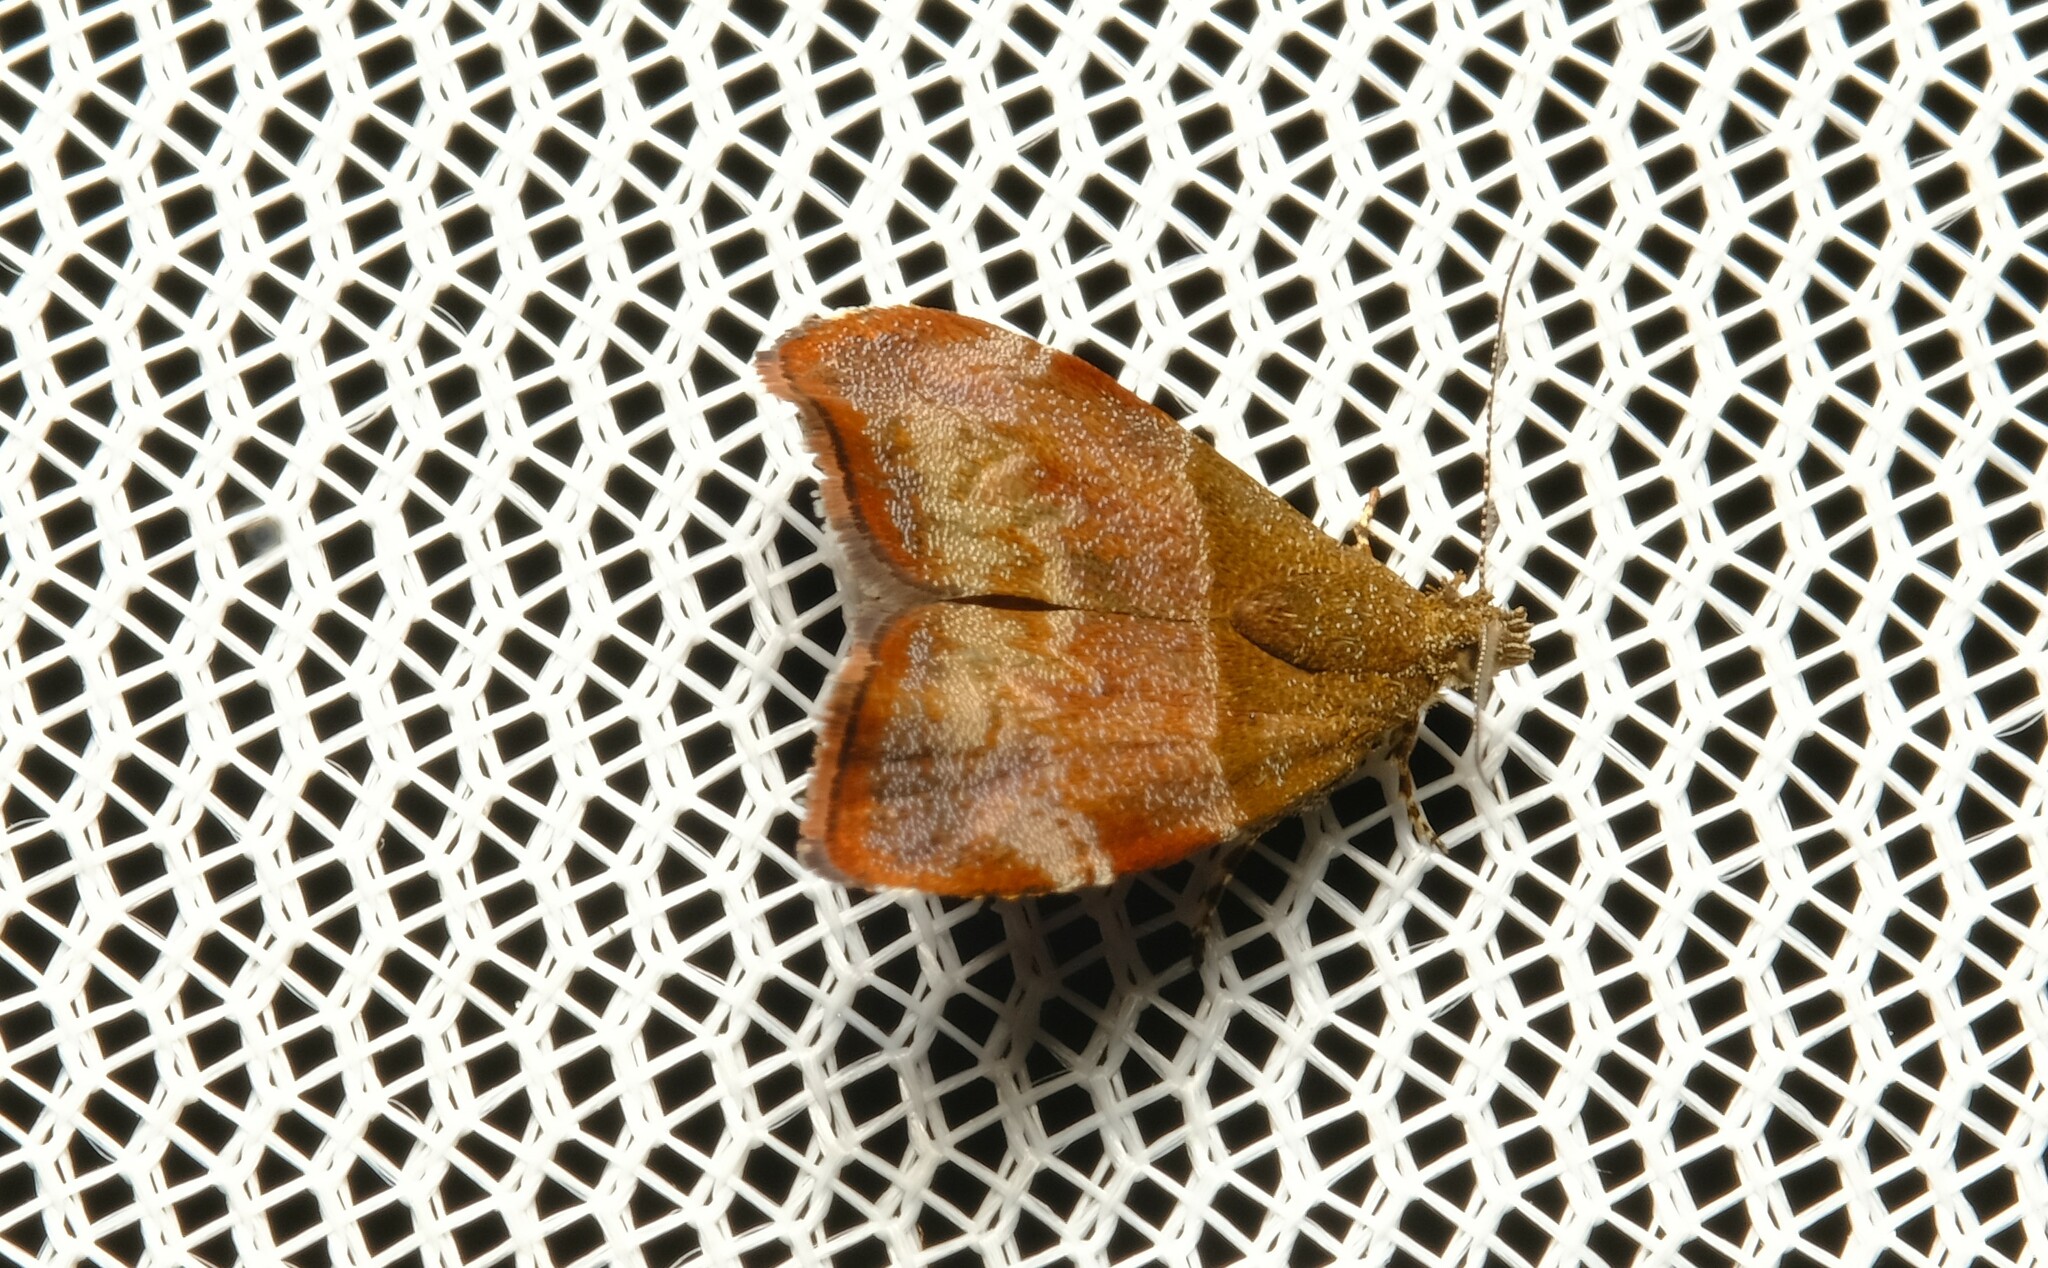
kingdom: Animalia
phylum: Arthropoda
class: Insecta
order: Lepidoptera
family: Choreutidae
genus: Choreutis
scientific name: Choreutis sycopola
